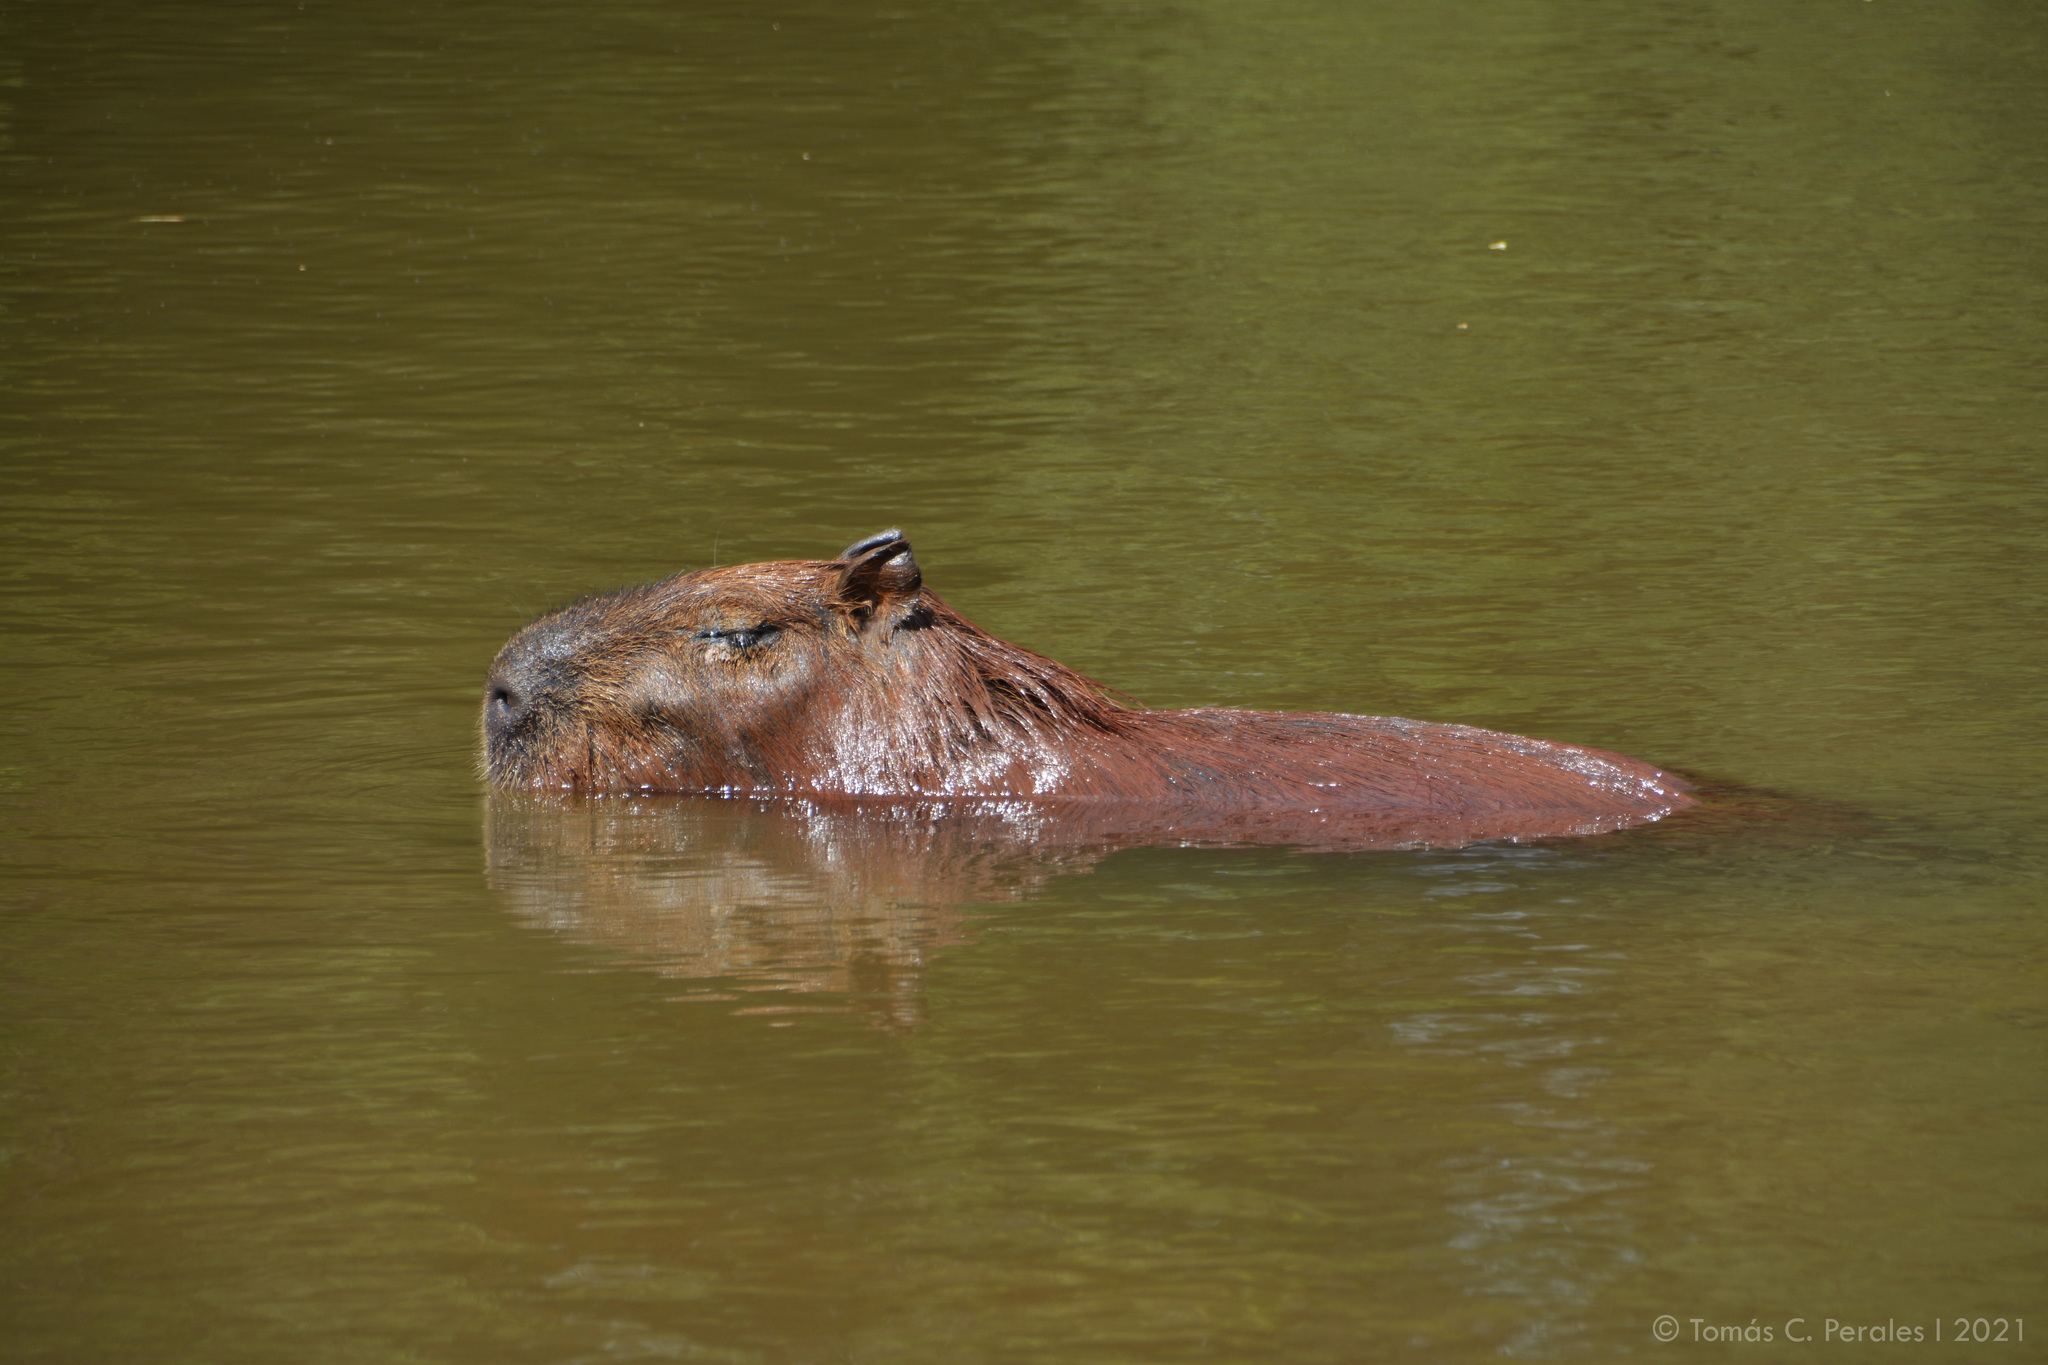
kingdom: Animalia
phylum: Chordata
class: Mammalia
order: Rodentia
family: Caviidae
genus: Hydrochoerus
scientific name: Hydrochoerus hydrochaeris
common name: Capybara
